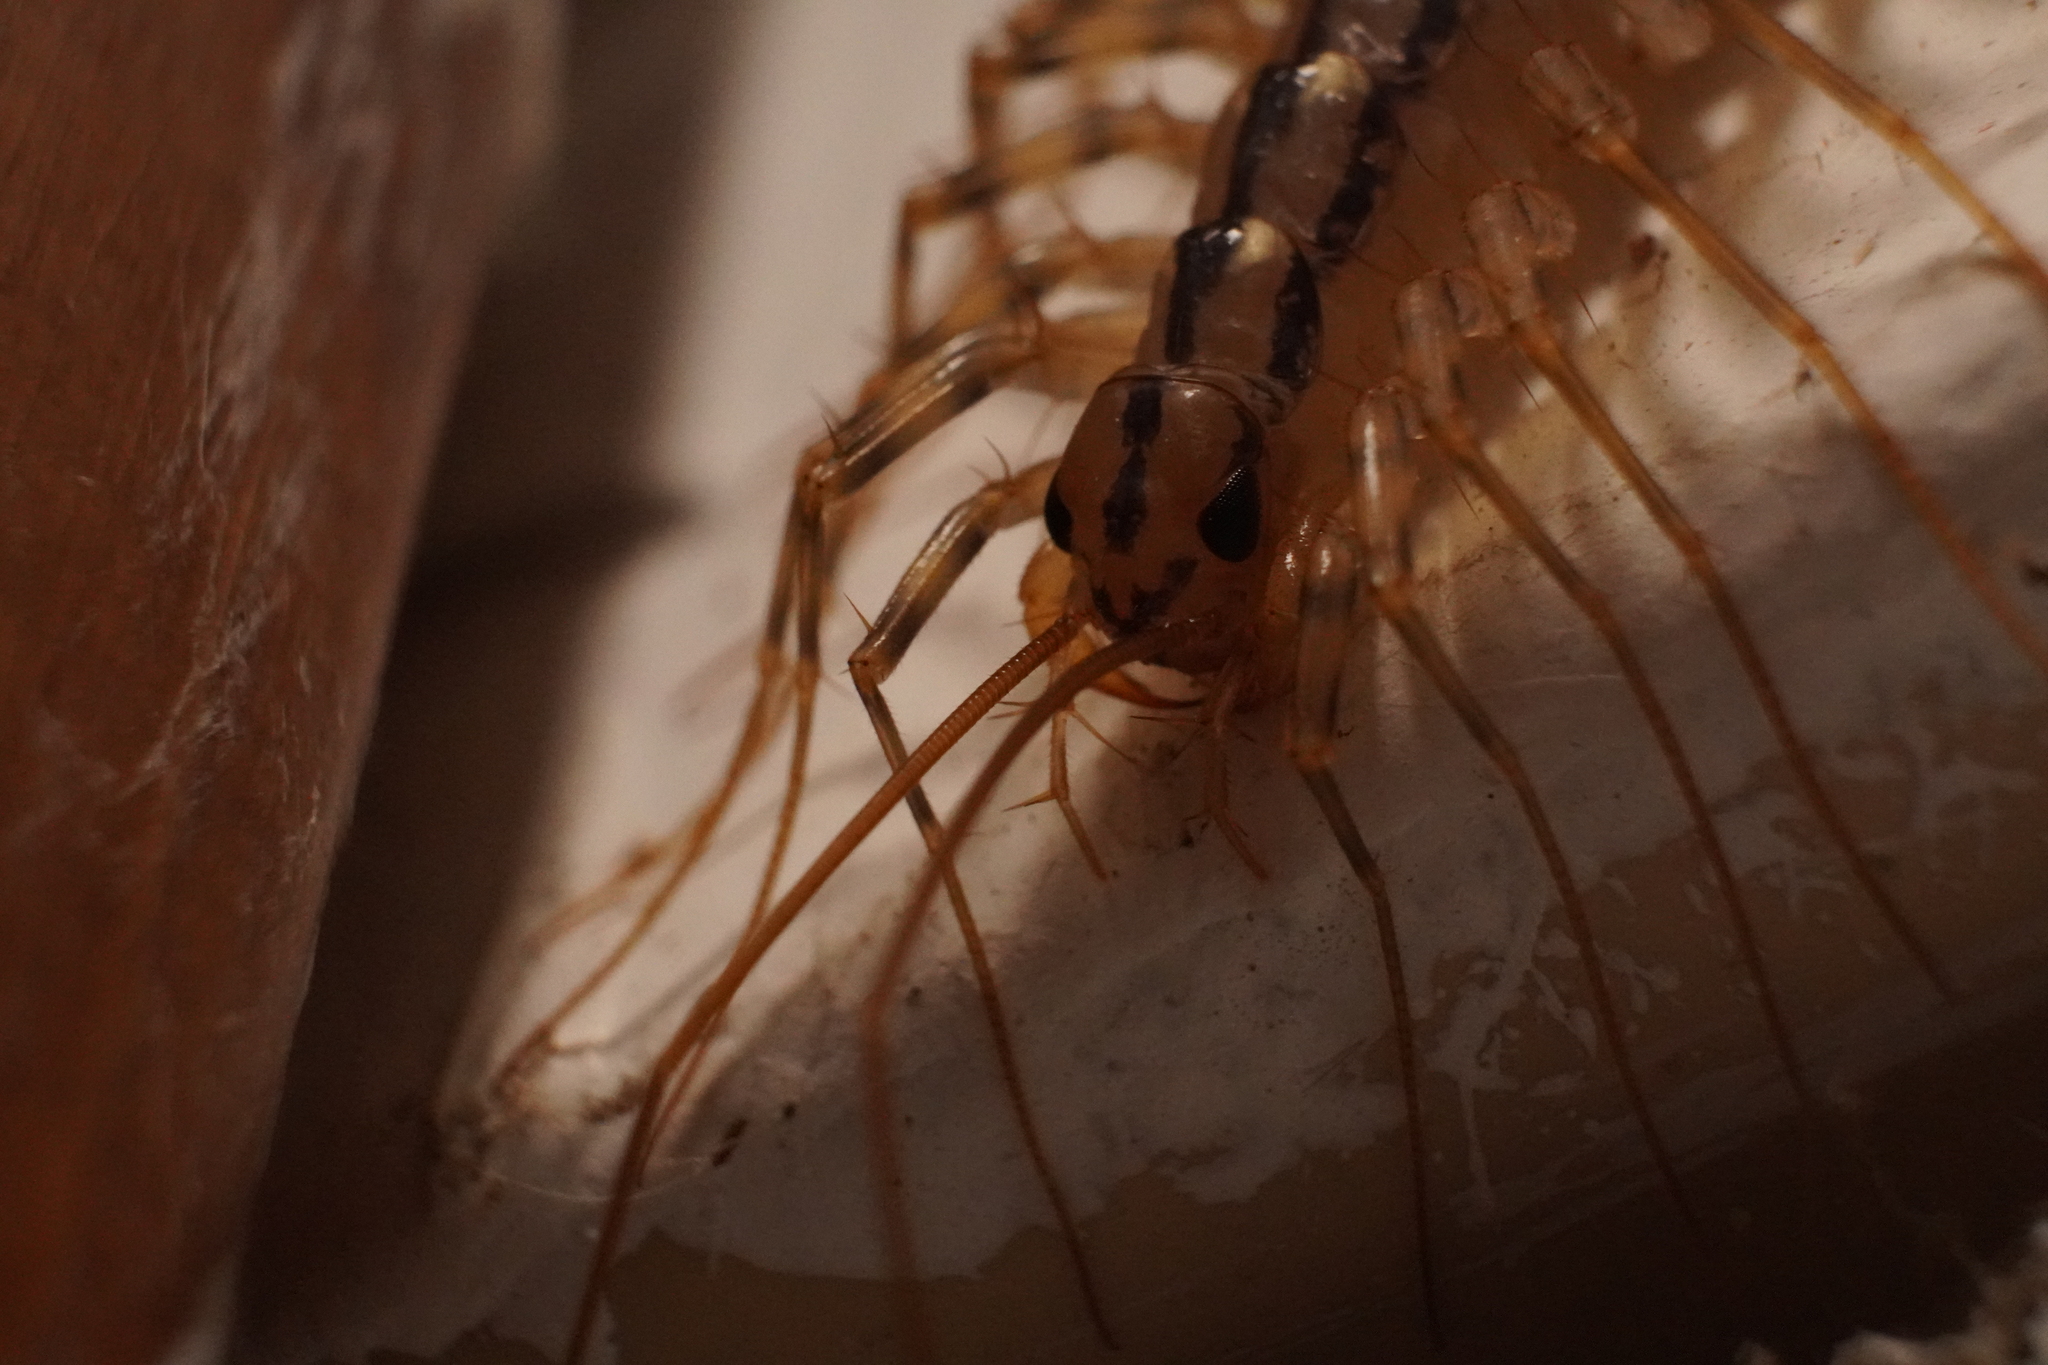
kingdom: Animalia
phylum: Arthropoda
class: Chilopoda
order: Scutigeromorpha
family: Scutigeridae
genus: Scutigera
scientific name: Scutigera coleoptrata
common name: House centipede
